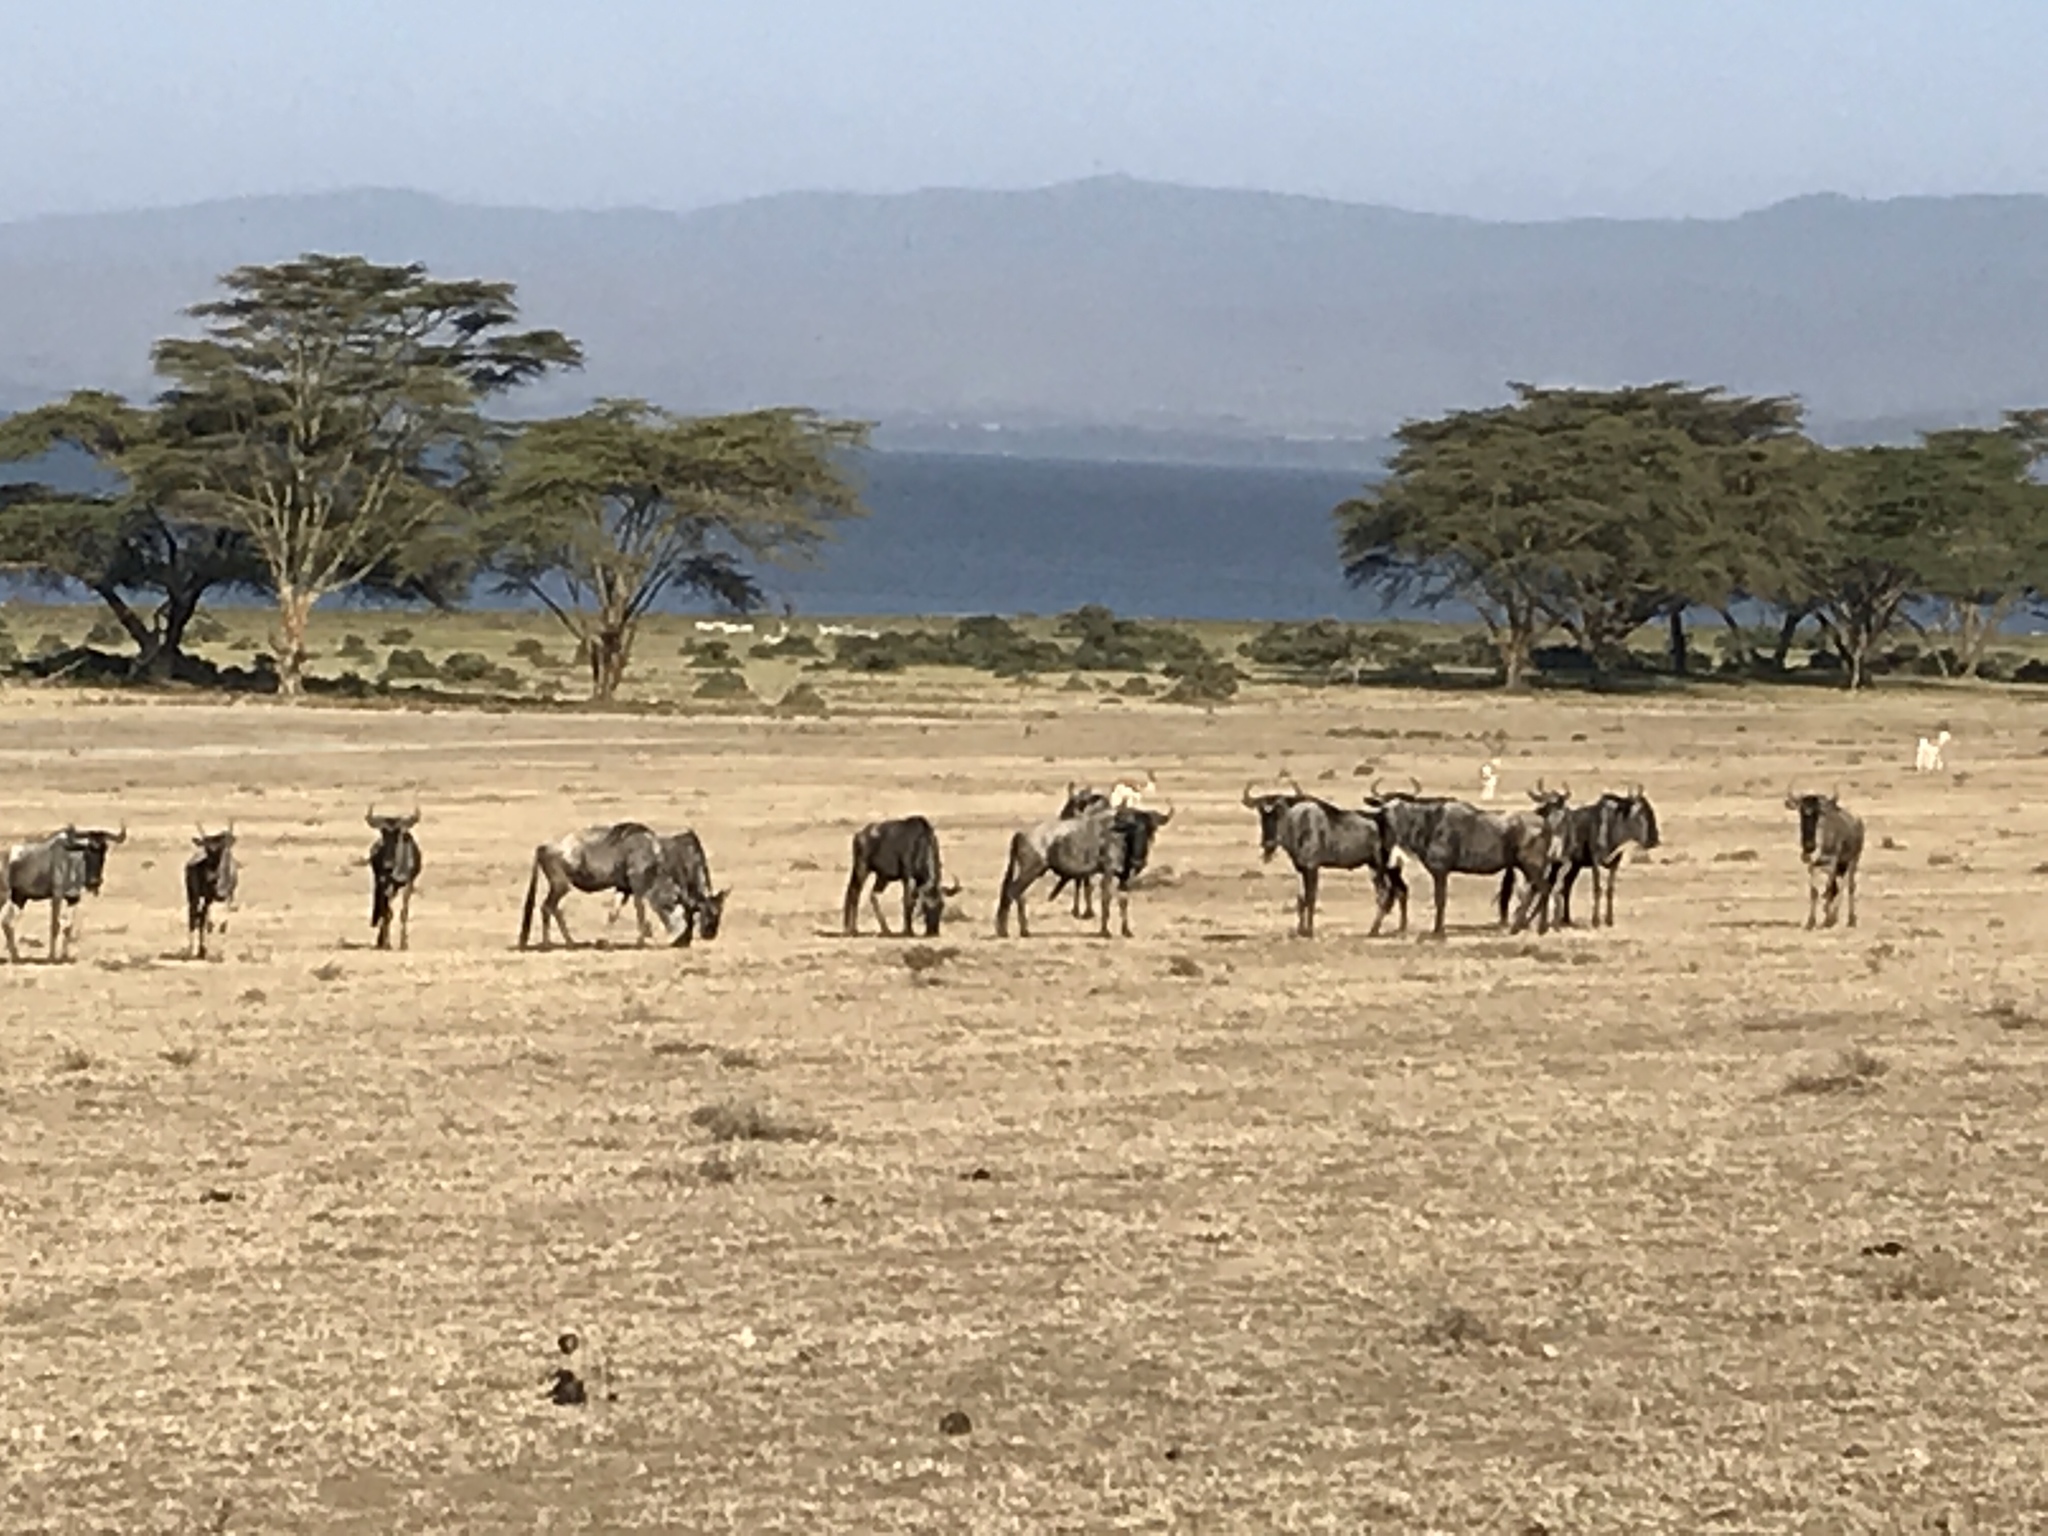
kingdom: Animalia
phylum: Chordata
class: Mammalia
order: Artiodactyla
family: Bovidae
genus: Connochaetes
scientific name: Connochaetes taurinus
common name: Blue wildebeest
